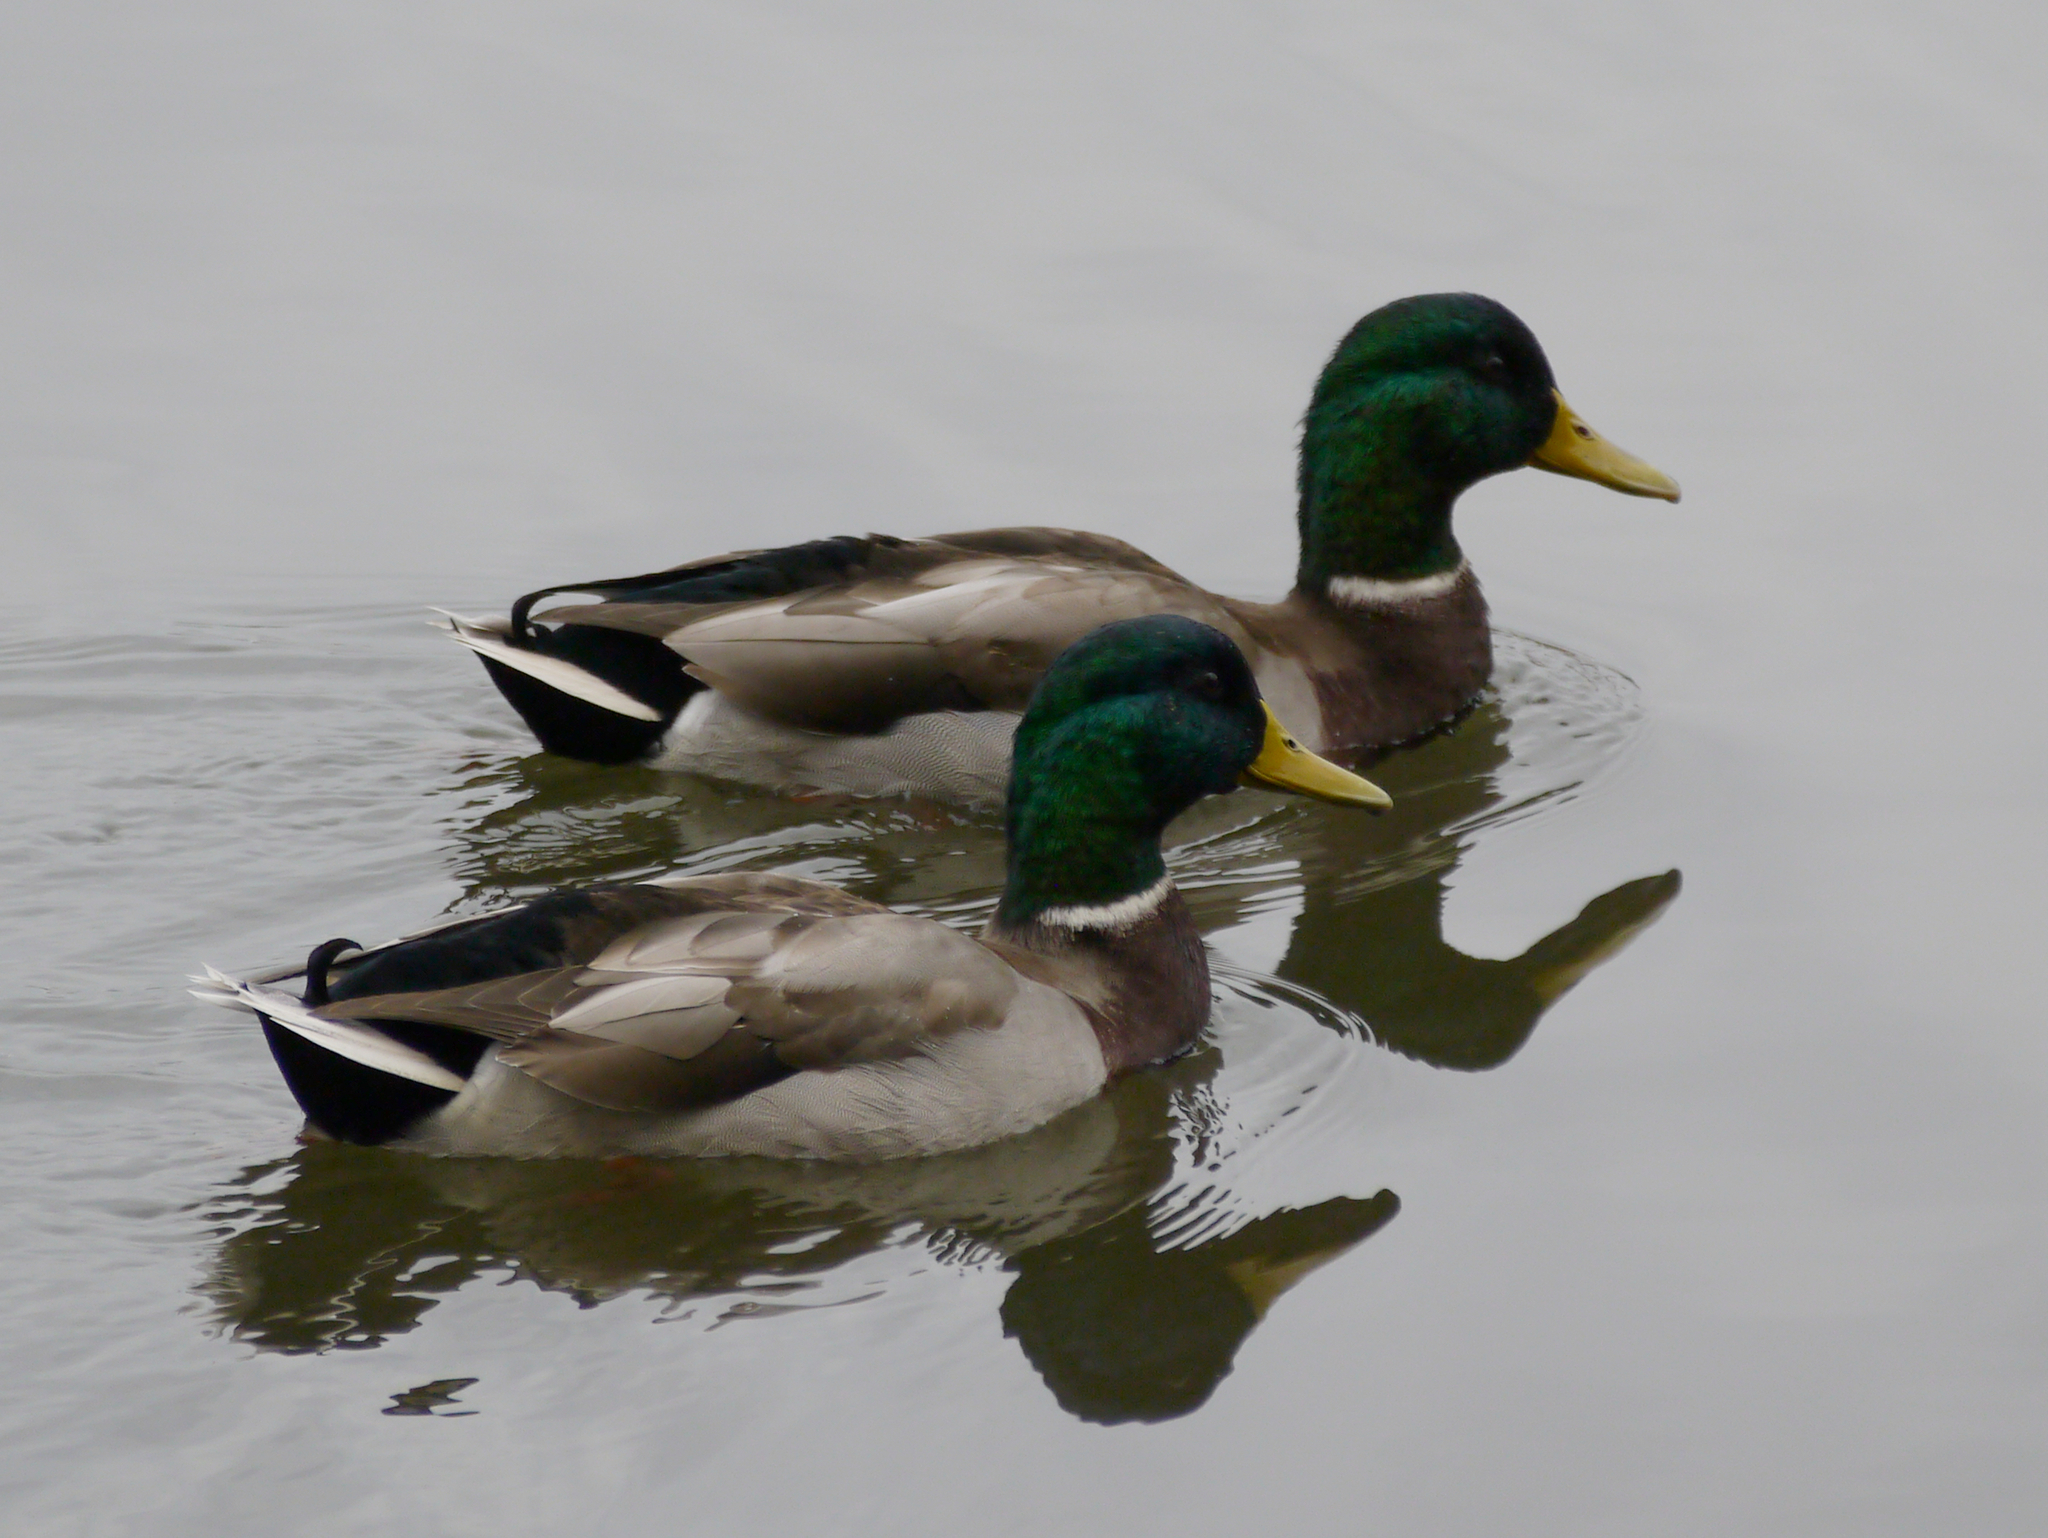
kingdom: Animalia
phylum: Chordata
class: Aves
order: Anseriformes
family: Anatidae
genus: Anas
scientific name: Anas platyrhynchos
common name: Mallard
